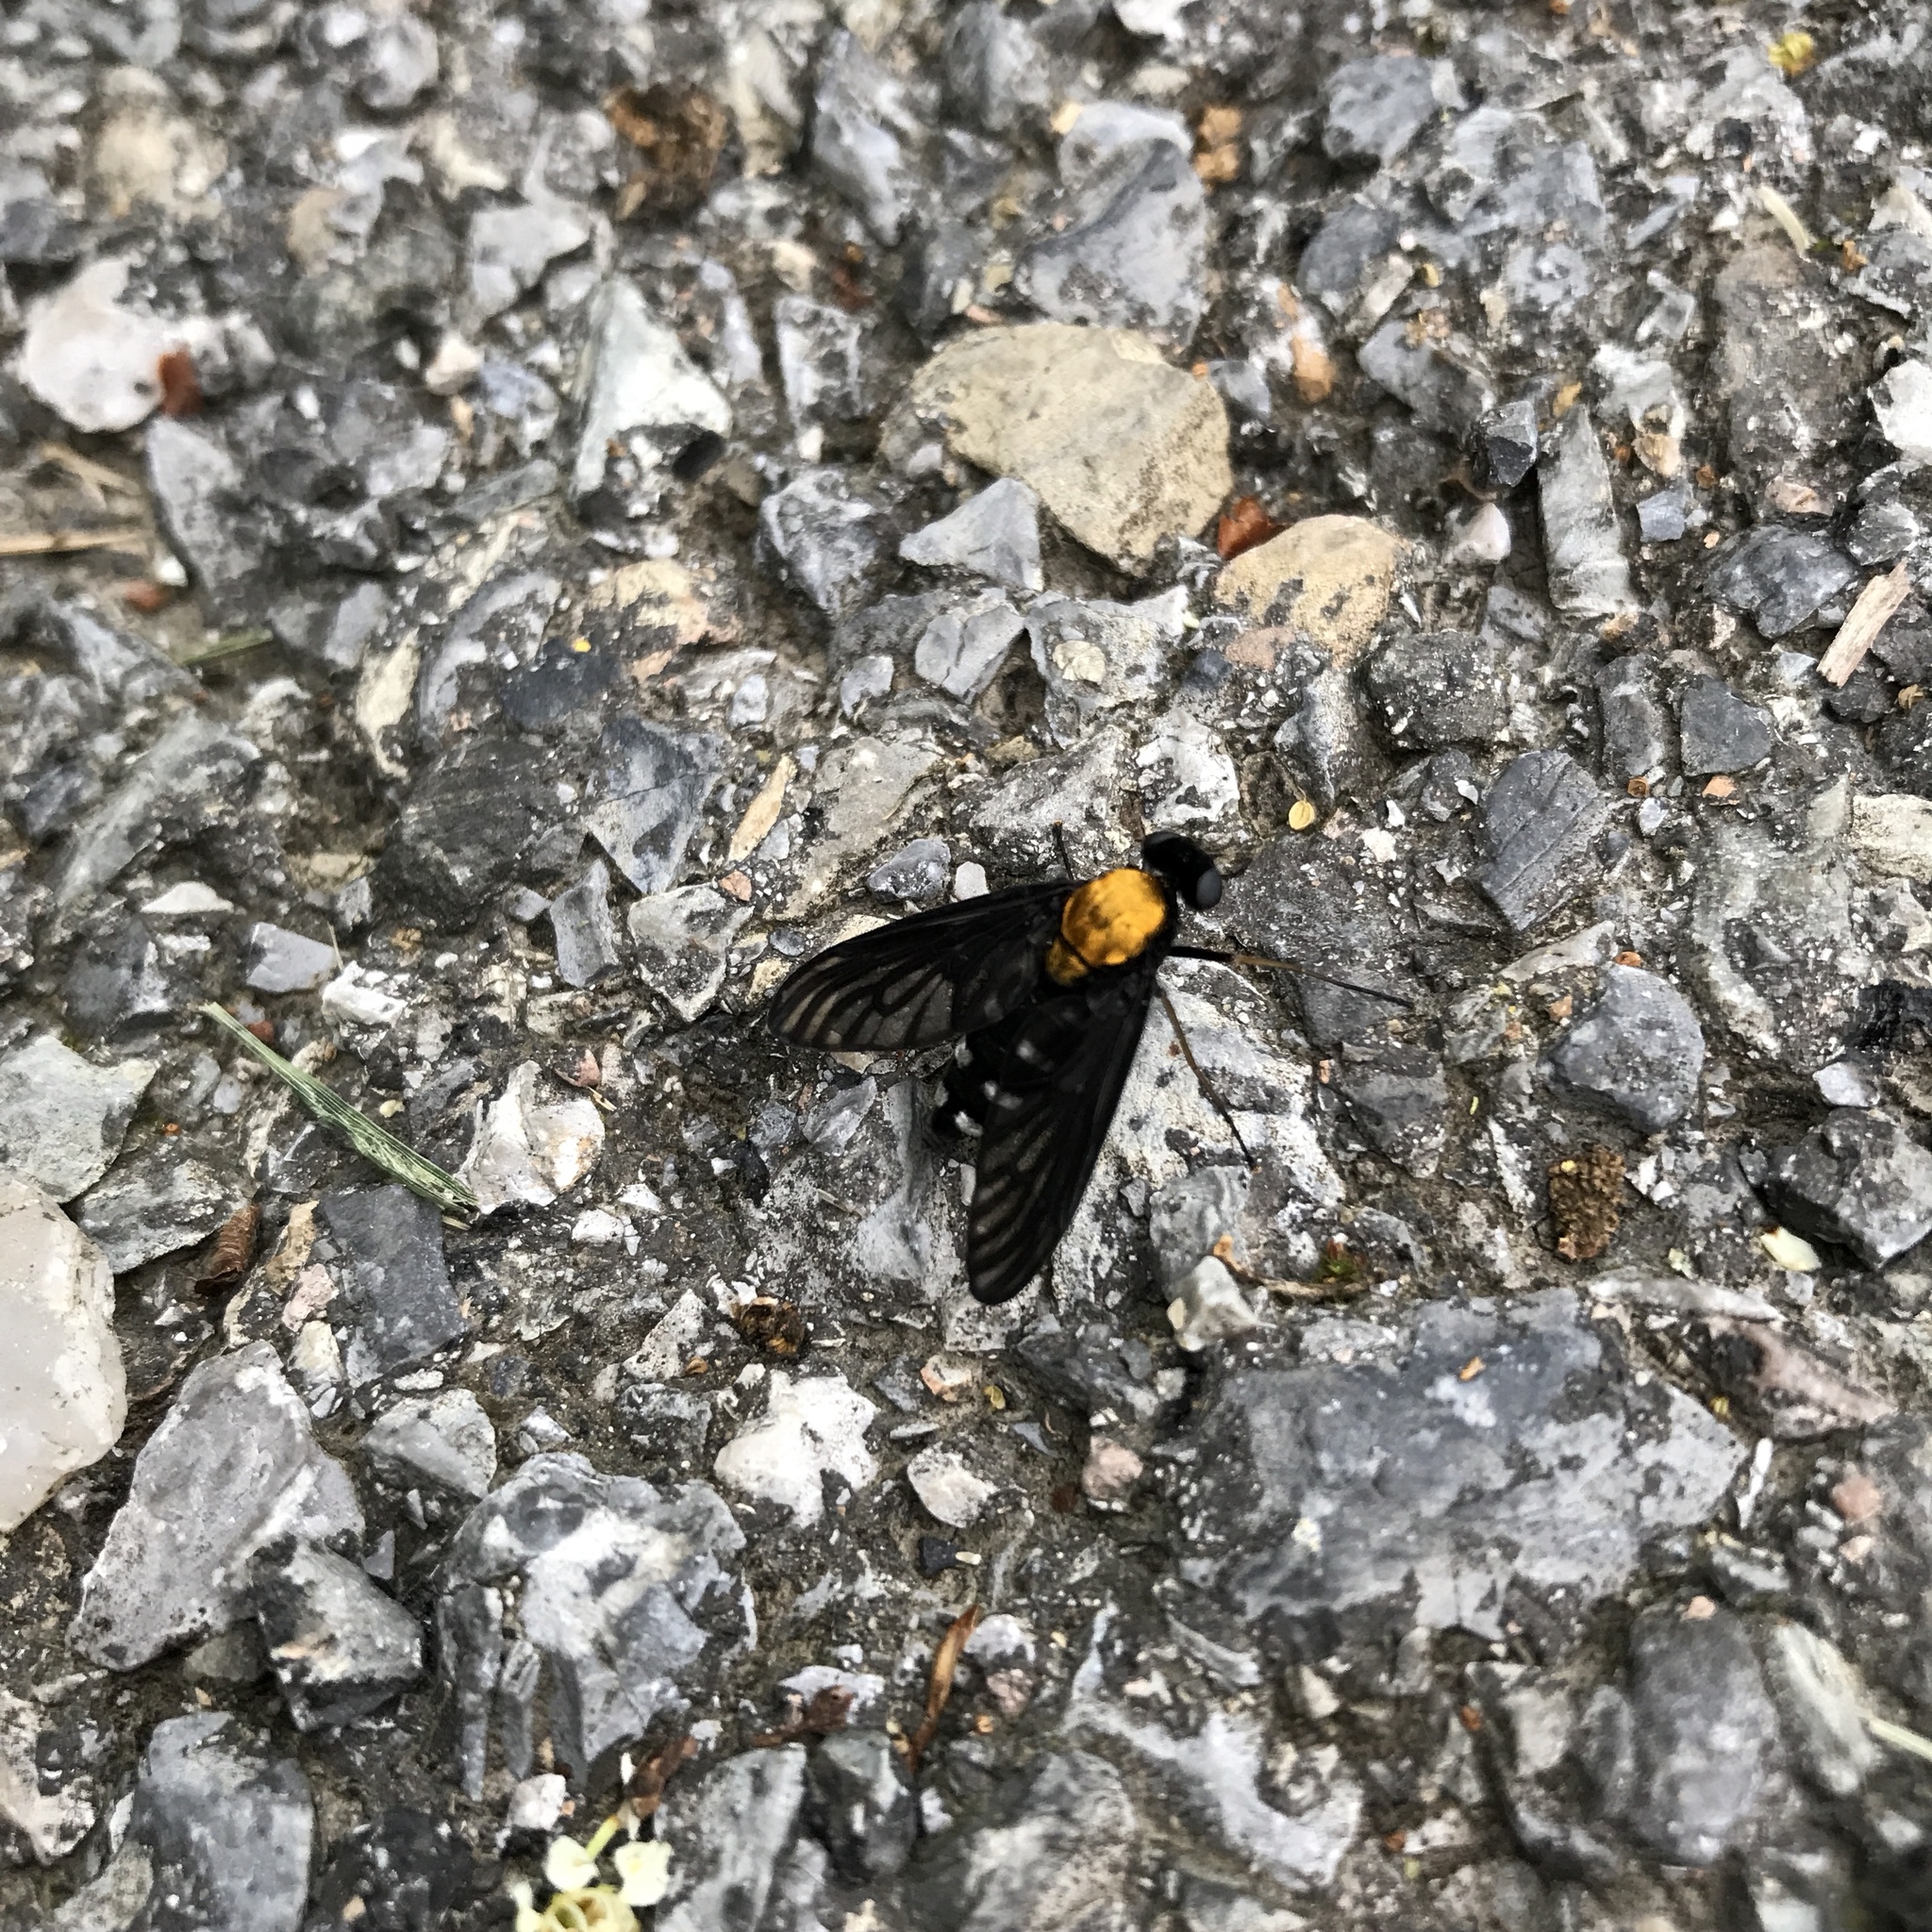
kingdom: Animalia
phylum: Arthropoda
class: Insecta
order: Diptera
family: Rhagionidae
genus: Chrysopilus
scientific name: Chrysopilus thoracicus
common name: Golden-backed snipe fly
